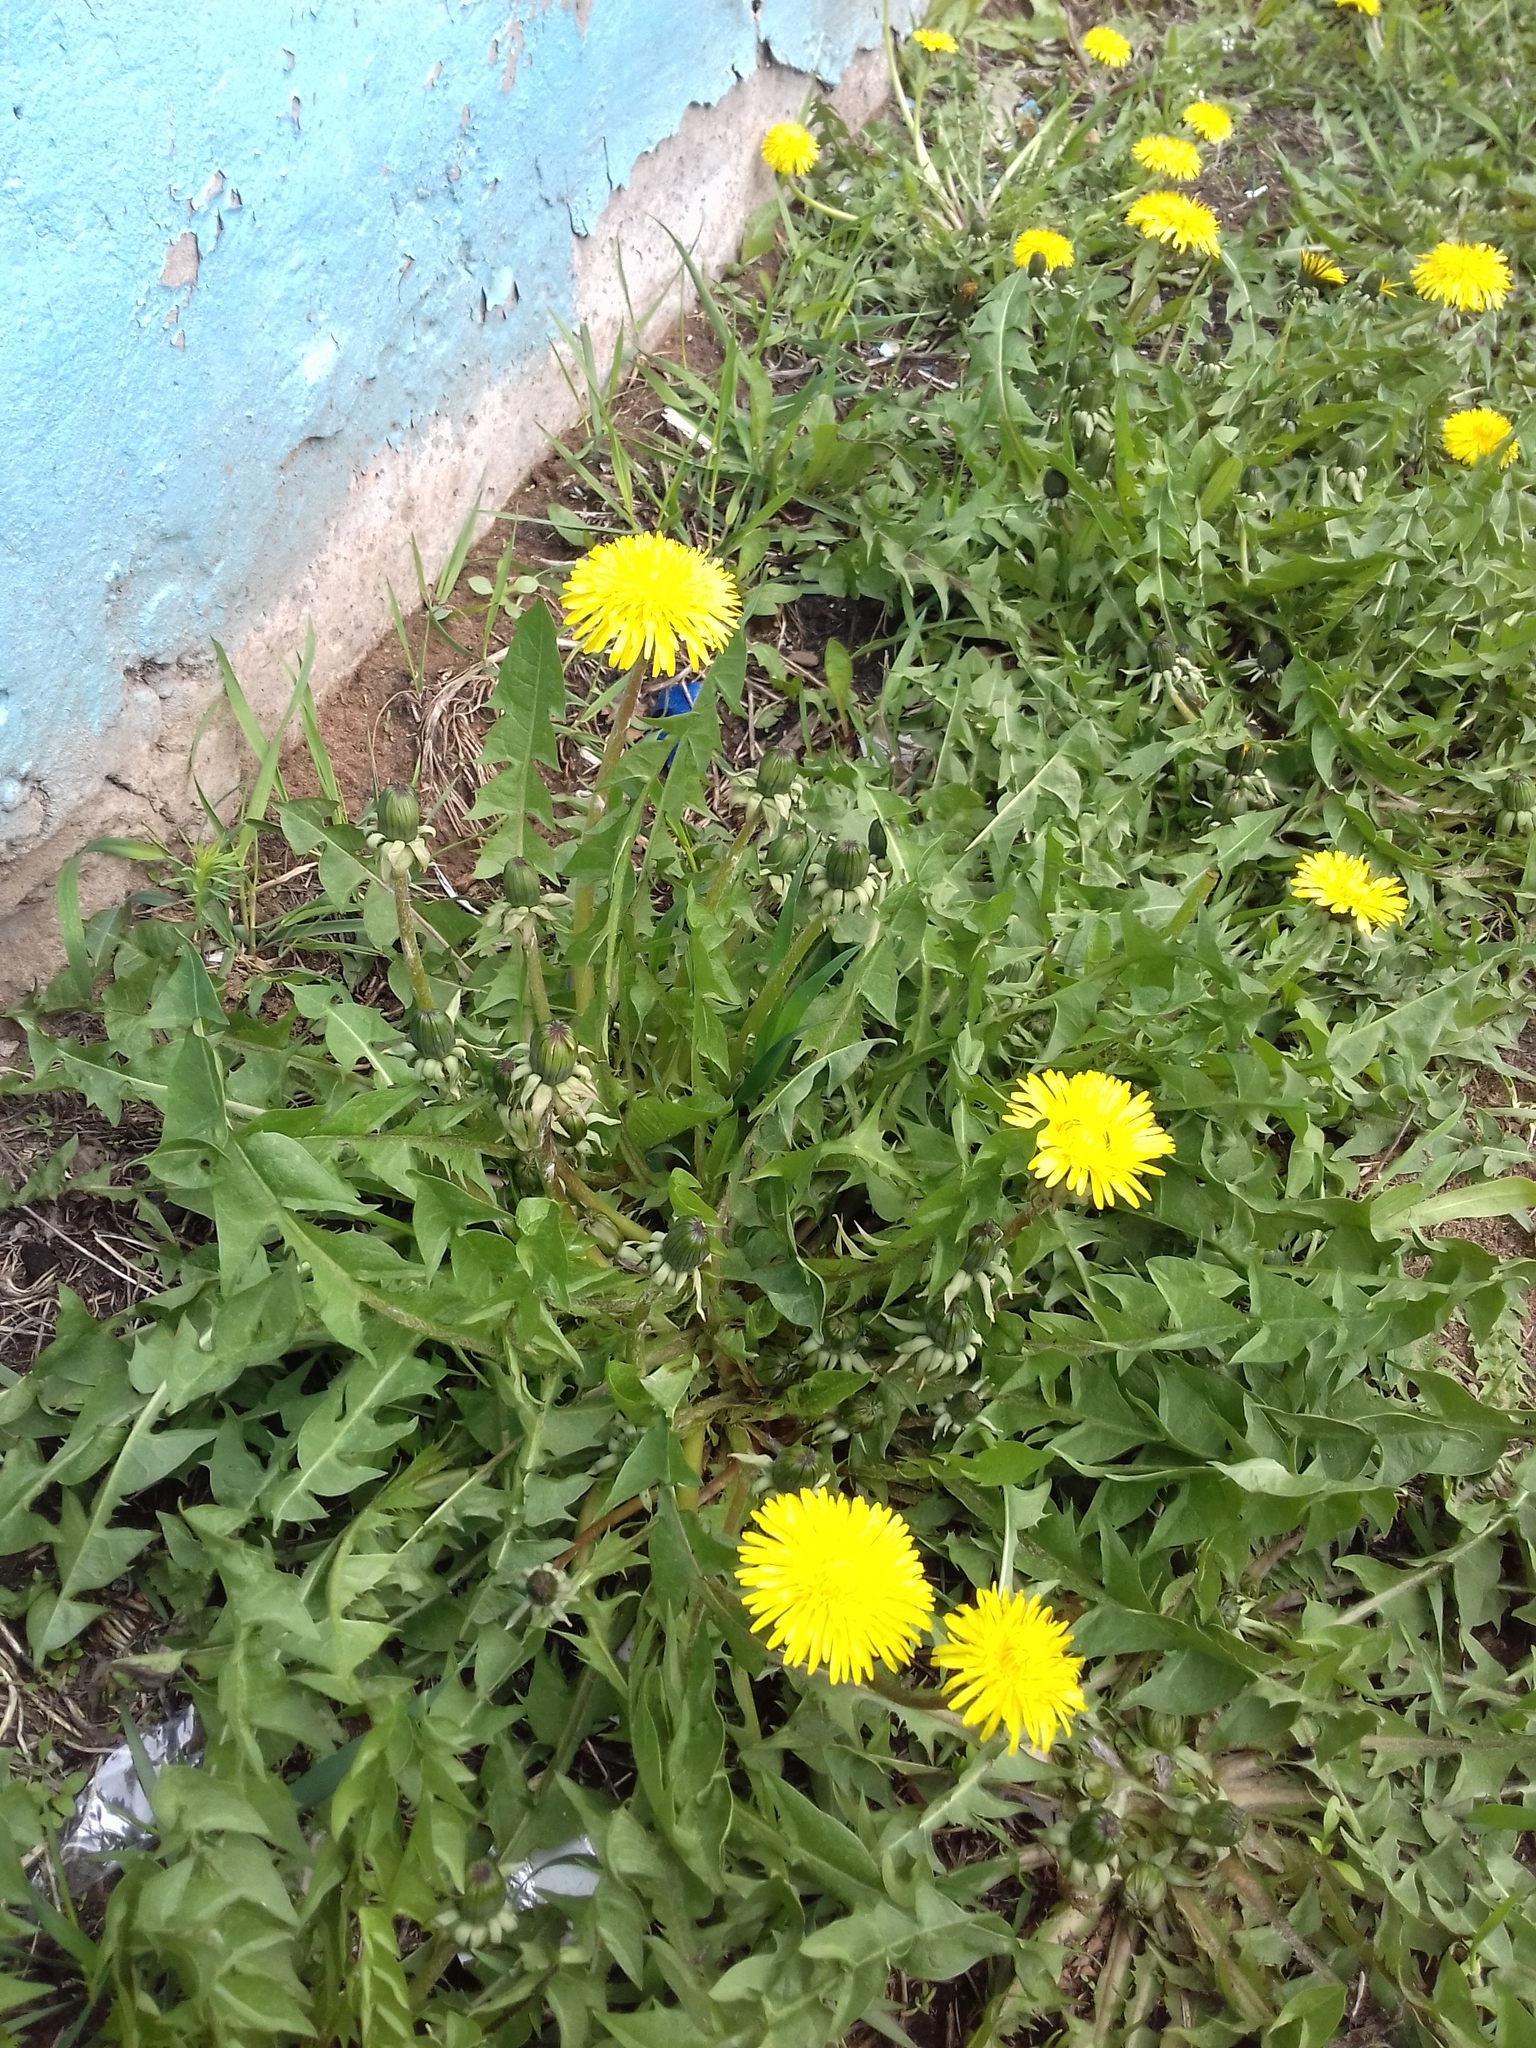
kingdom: Plantae
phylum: Tracheophyta
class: Magnoliopsida
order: Asterales
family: Asteraceae
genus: Taraxacum
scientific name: Taraxacum officinale
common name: Common dandelion
